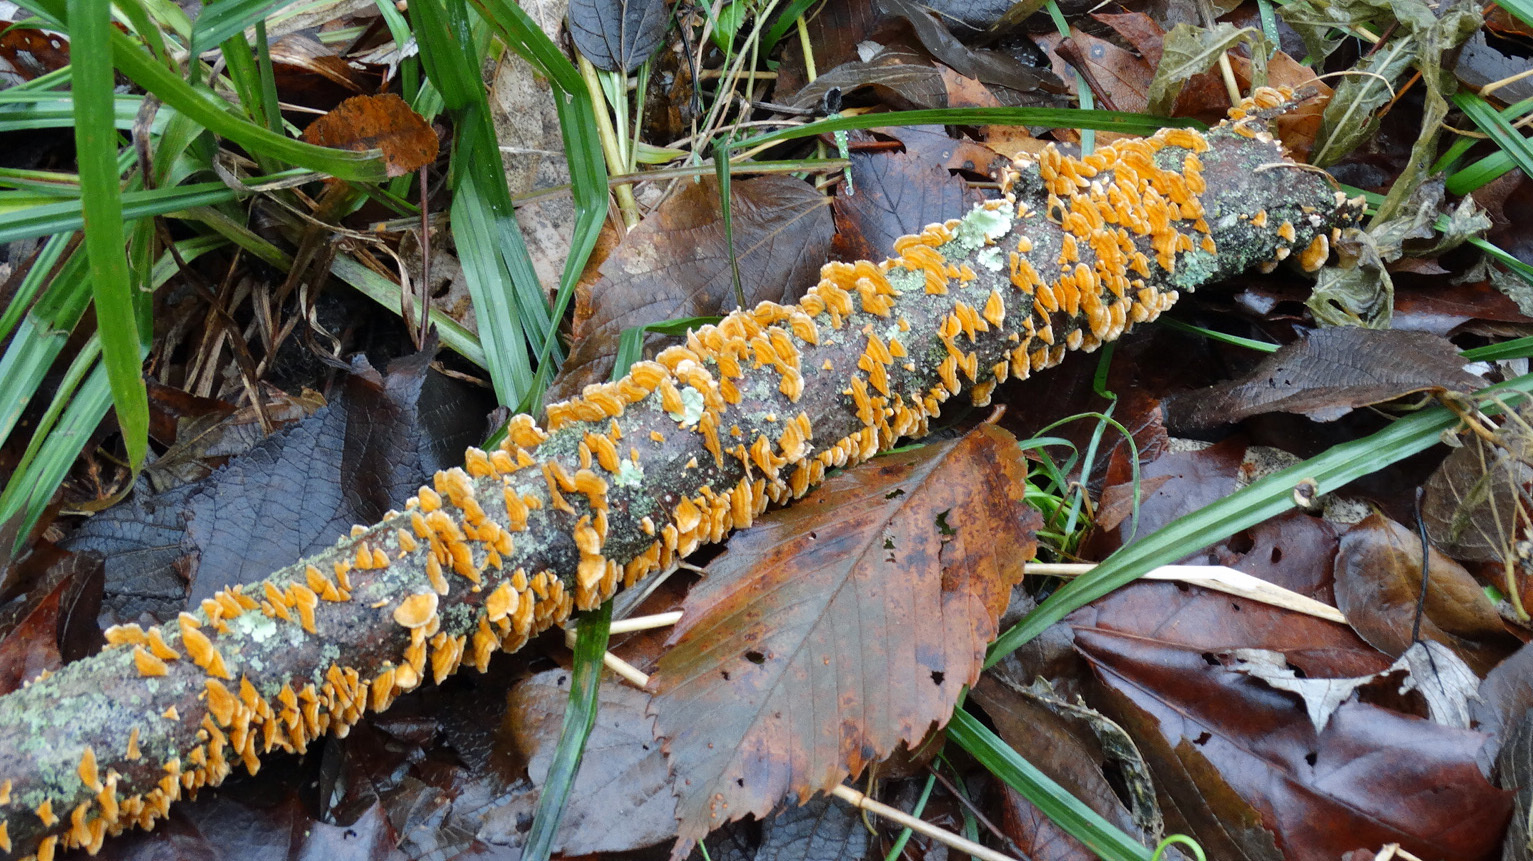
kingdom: Fungi
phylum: Basidiomycota
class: Agaricomycetes
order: Russulales
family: Stereaceae
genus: Stereum
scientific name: Stereum complicatum
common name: Crowded parchment
